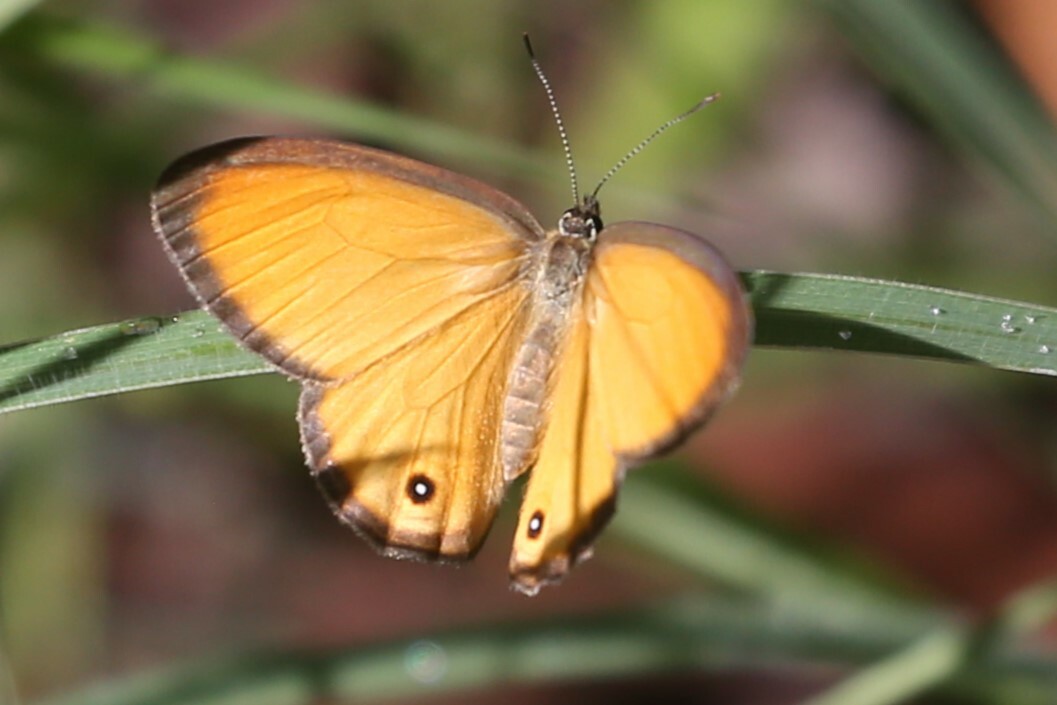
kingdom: Animalia
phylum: Arthropoda
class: Insecta
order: Lepidoptera
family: Nymphalidae
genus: Hypocysta
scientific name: Hypocysta adiante
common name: Orange ringlet
